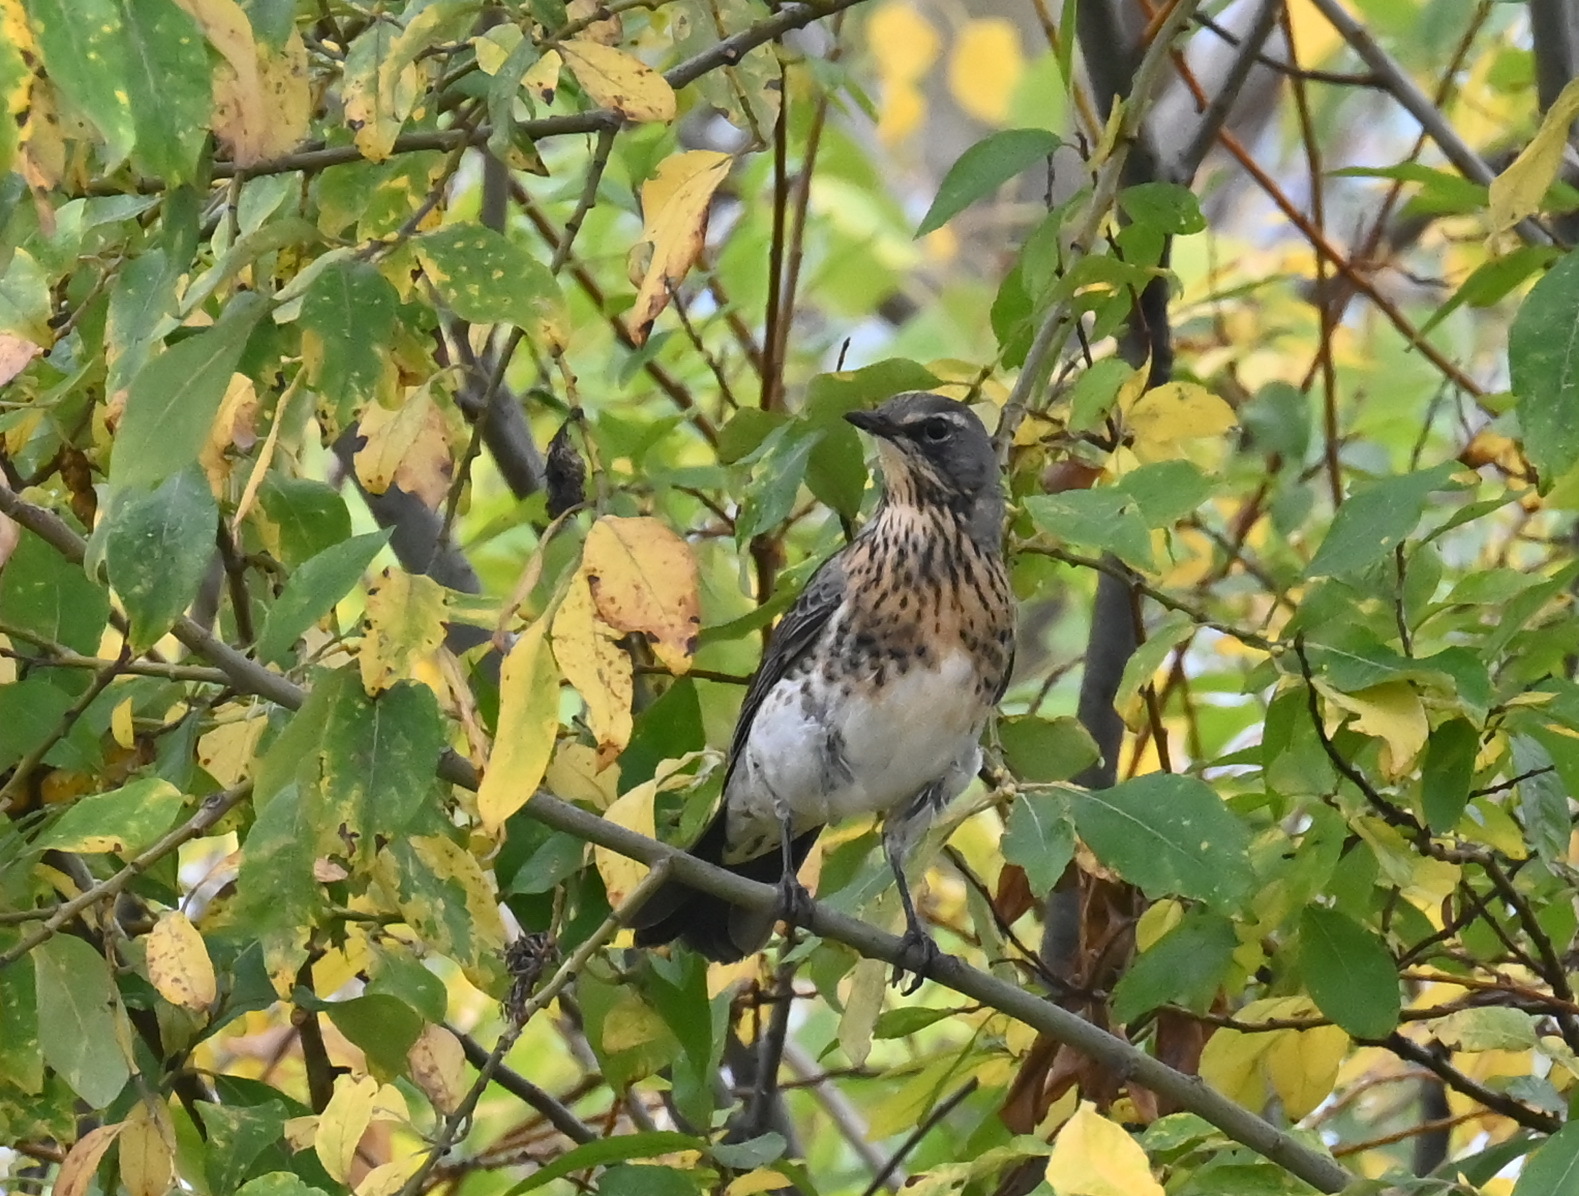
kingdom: Animalia
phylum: Chordata
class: Aves
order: Passeriformes
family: Turdidae
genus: Turdus
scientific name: Turdus pilaris
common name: Fieldfare
